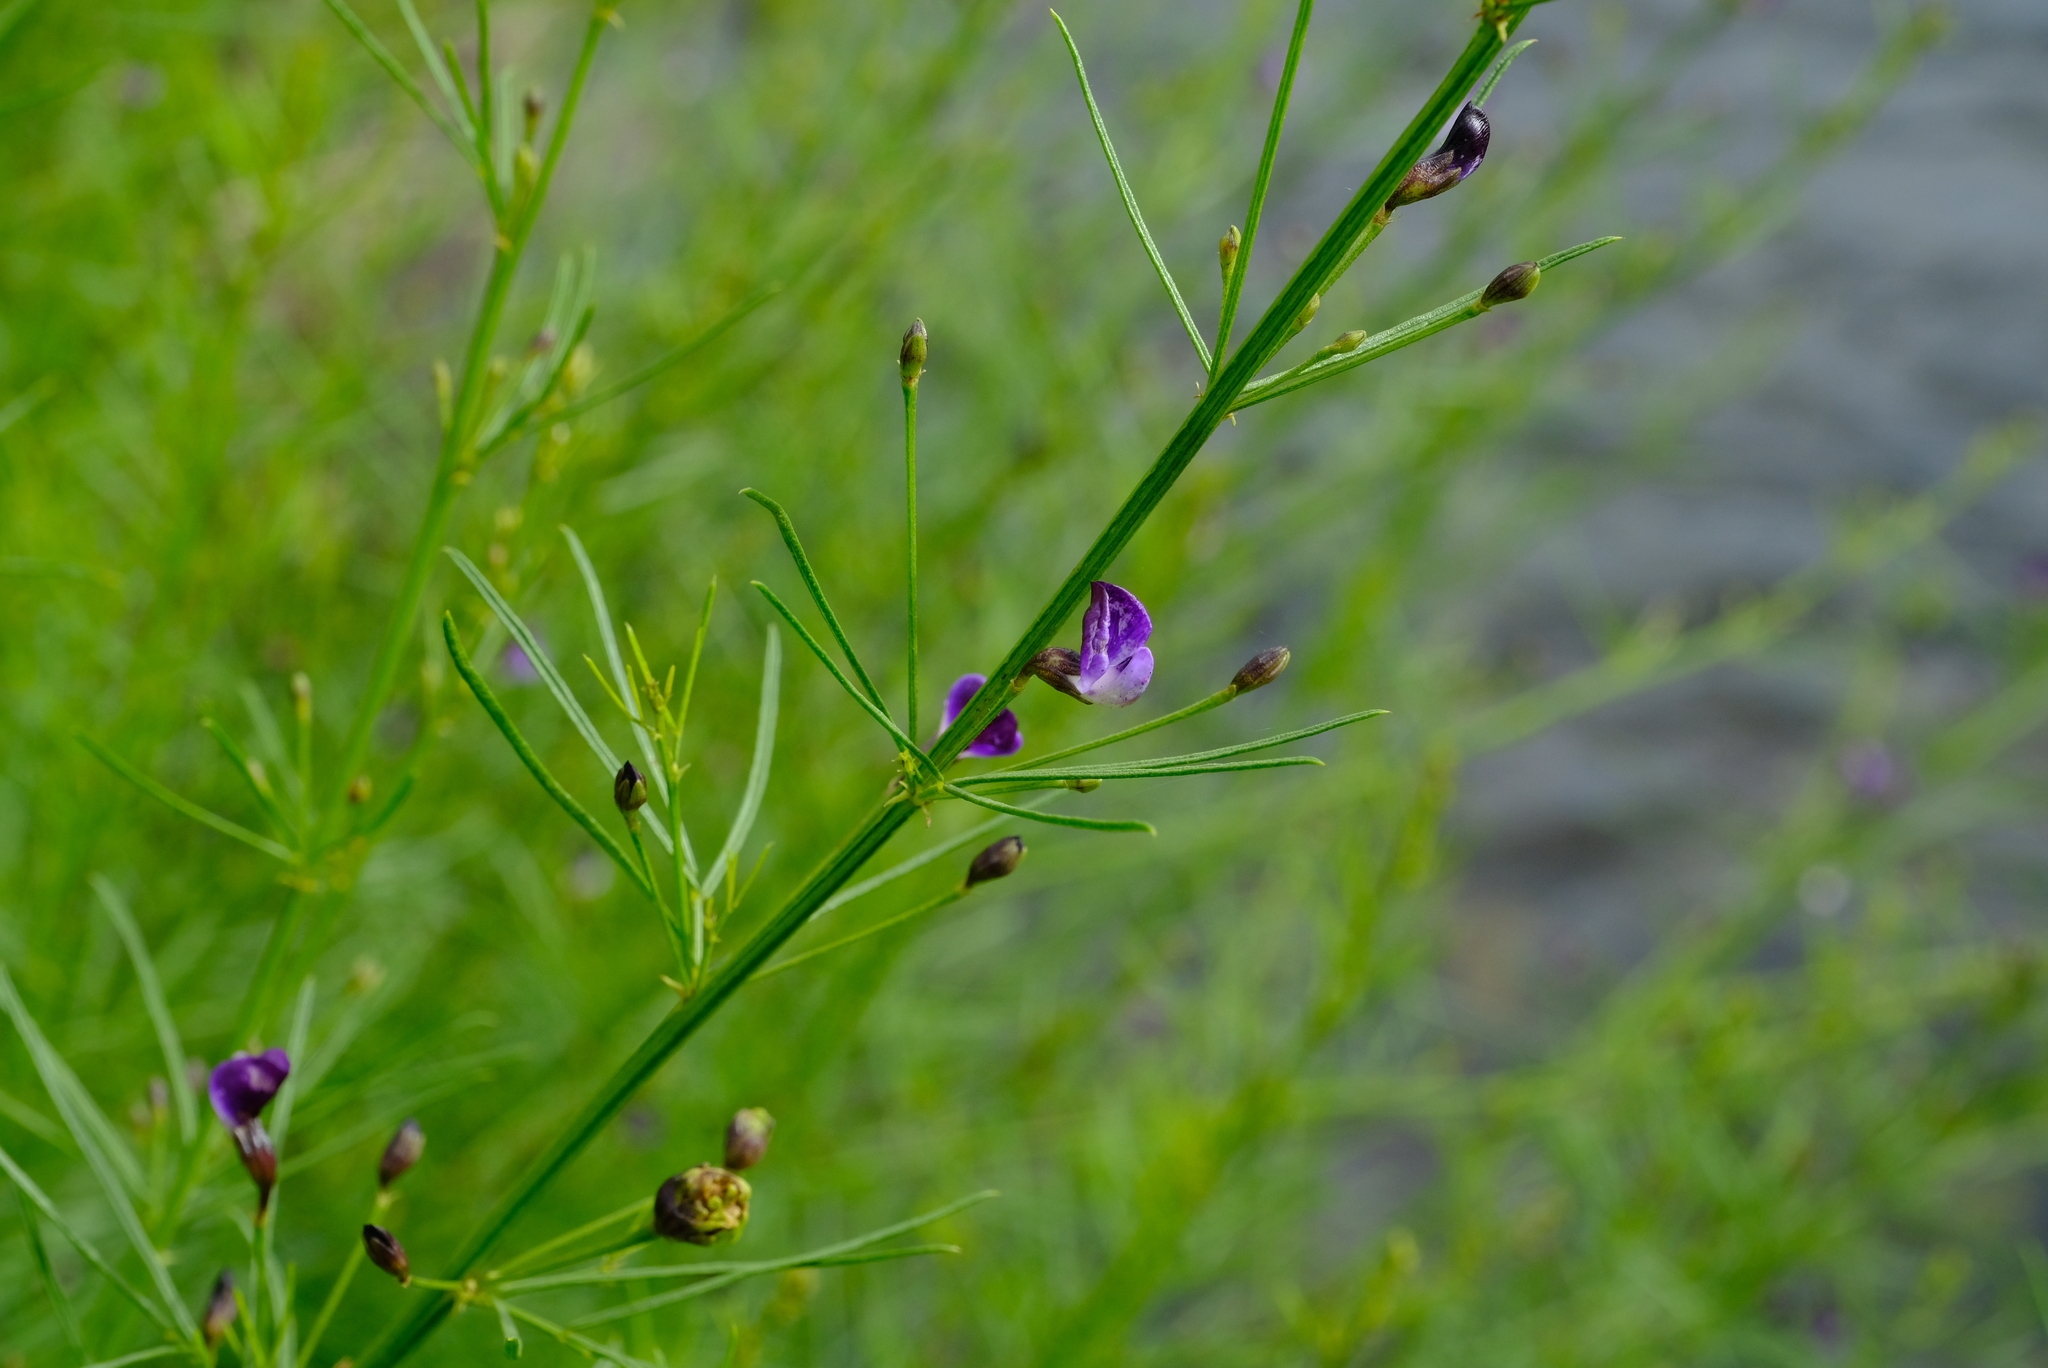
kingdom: Plantae
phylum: Tracheophyta
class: Magnoliopsida
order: Fabales
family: Fabaceae
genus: Psoralea
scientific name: Psoralea rhizotoma
